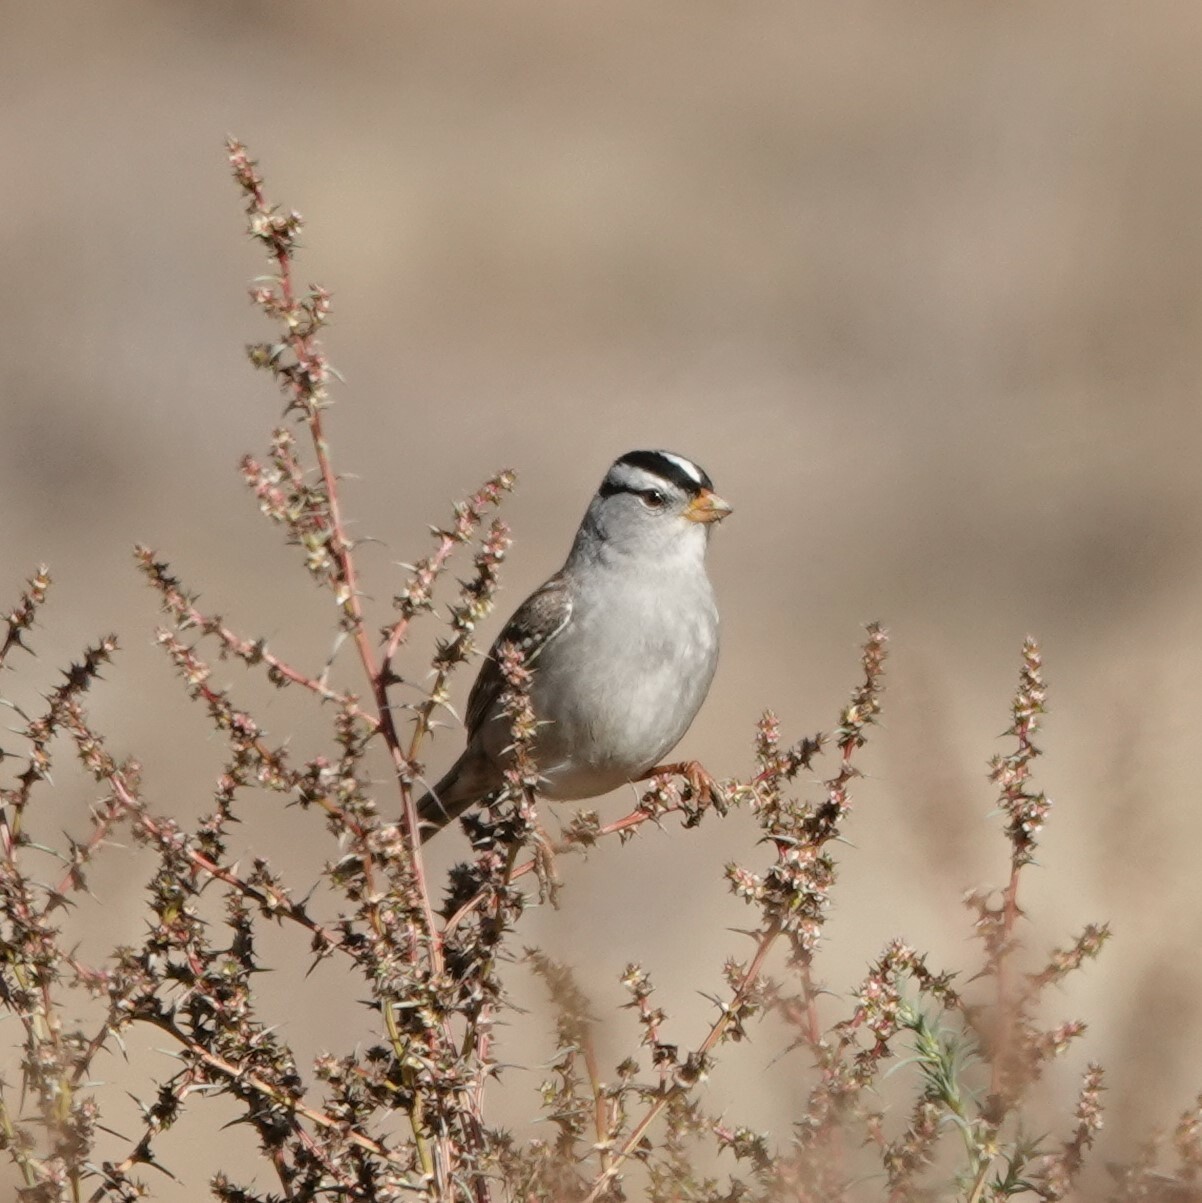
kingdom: Animalia
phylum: Chordata
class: Aves
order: Passeriformes
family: Passerellidae
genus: Zonotrichia
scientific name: Zonotrichia leucophrys
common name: White-crowned sparrow
